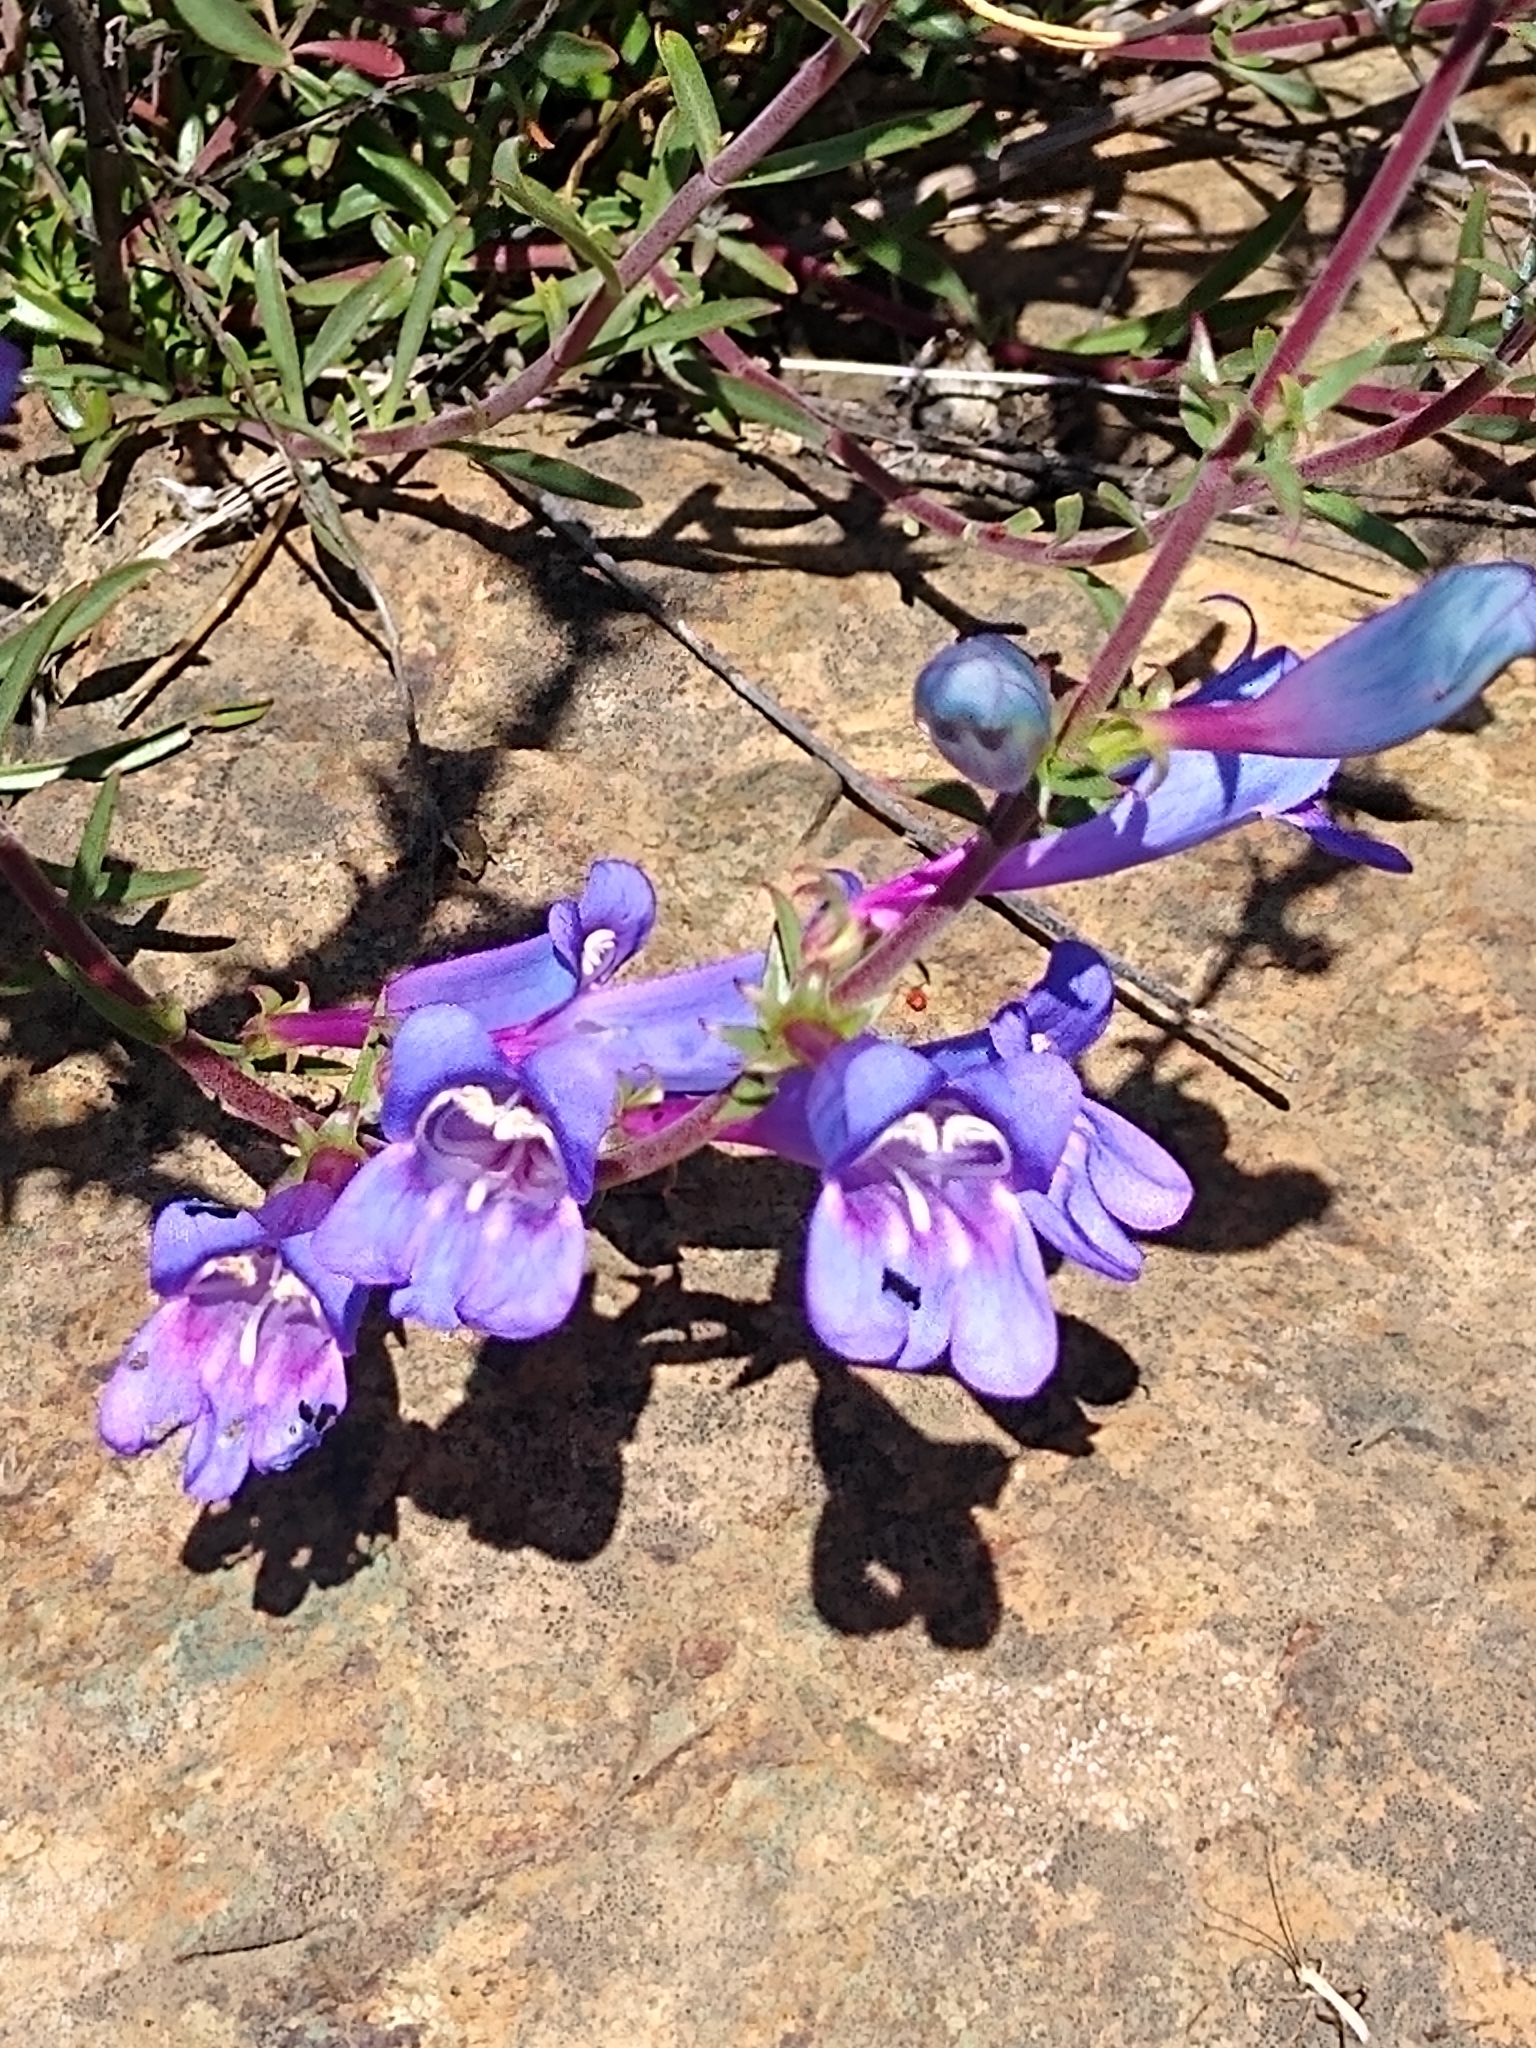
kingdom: Plantae
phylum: Tracheophyta
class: Magnoliopsida
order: Lamiales
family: Plantaginaceae
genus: Penstemon
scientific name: Penstemon heterophyllus
